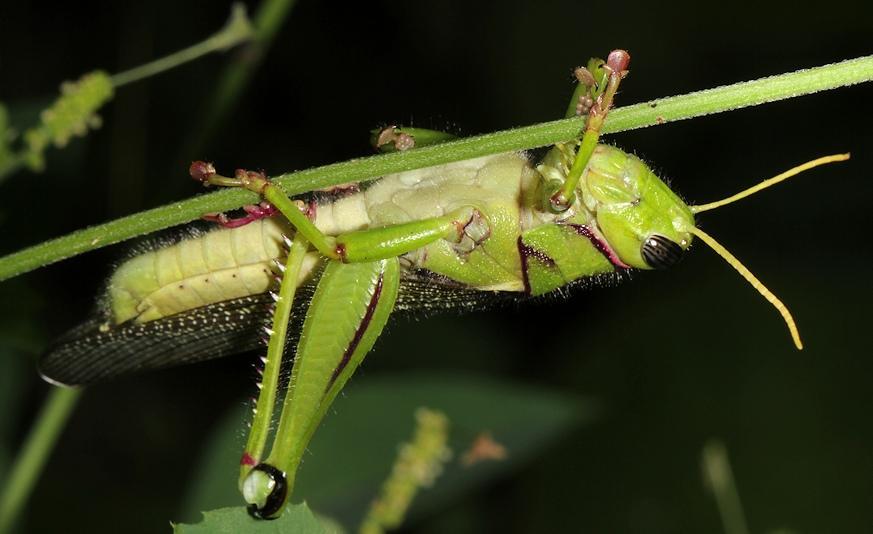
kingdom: Animalia
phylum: Arthropoda
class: Insecta
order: Orthoptera
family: Acrididae
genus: Kraussaria
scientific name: Kraussaria prasina
